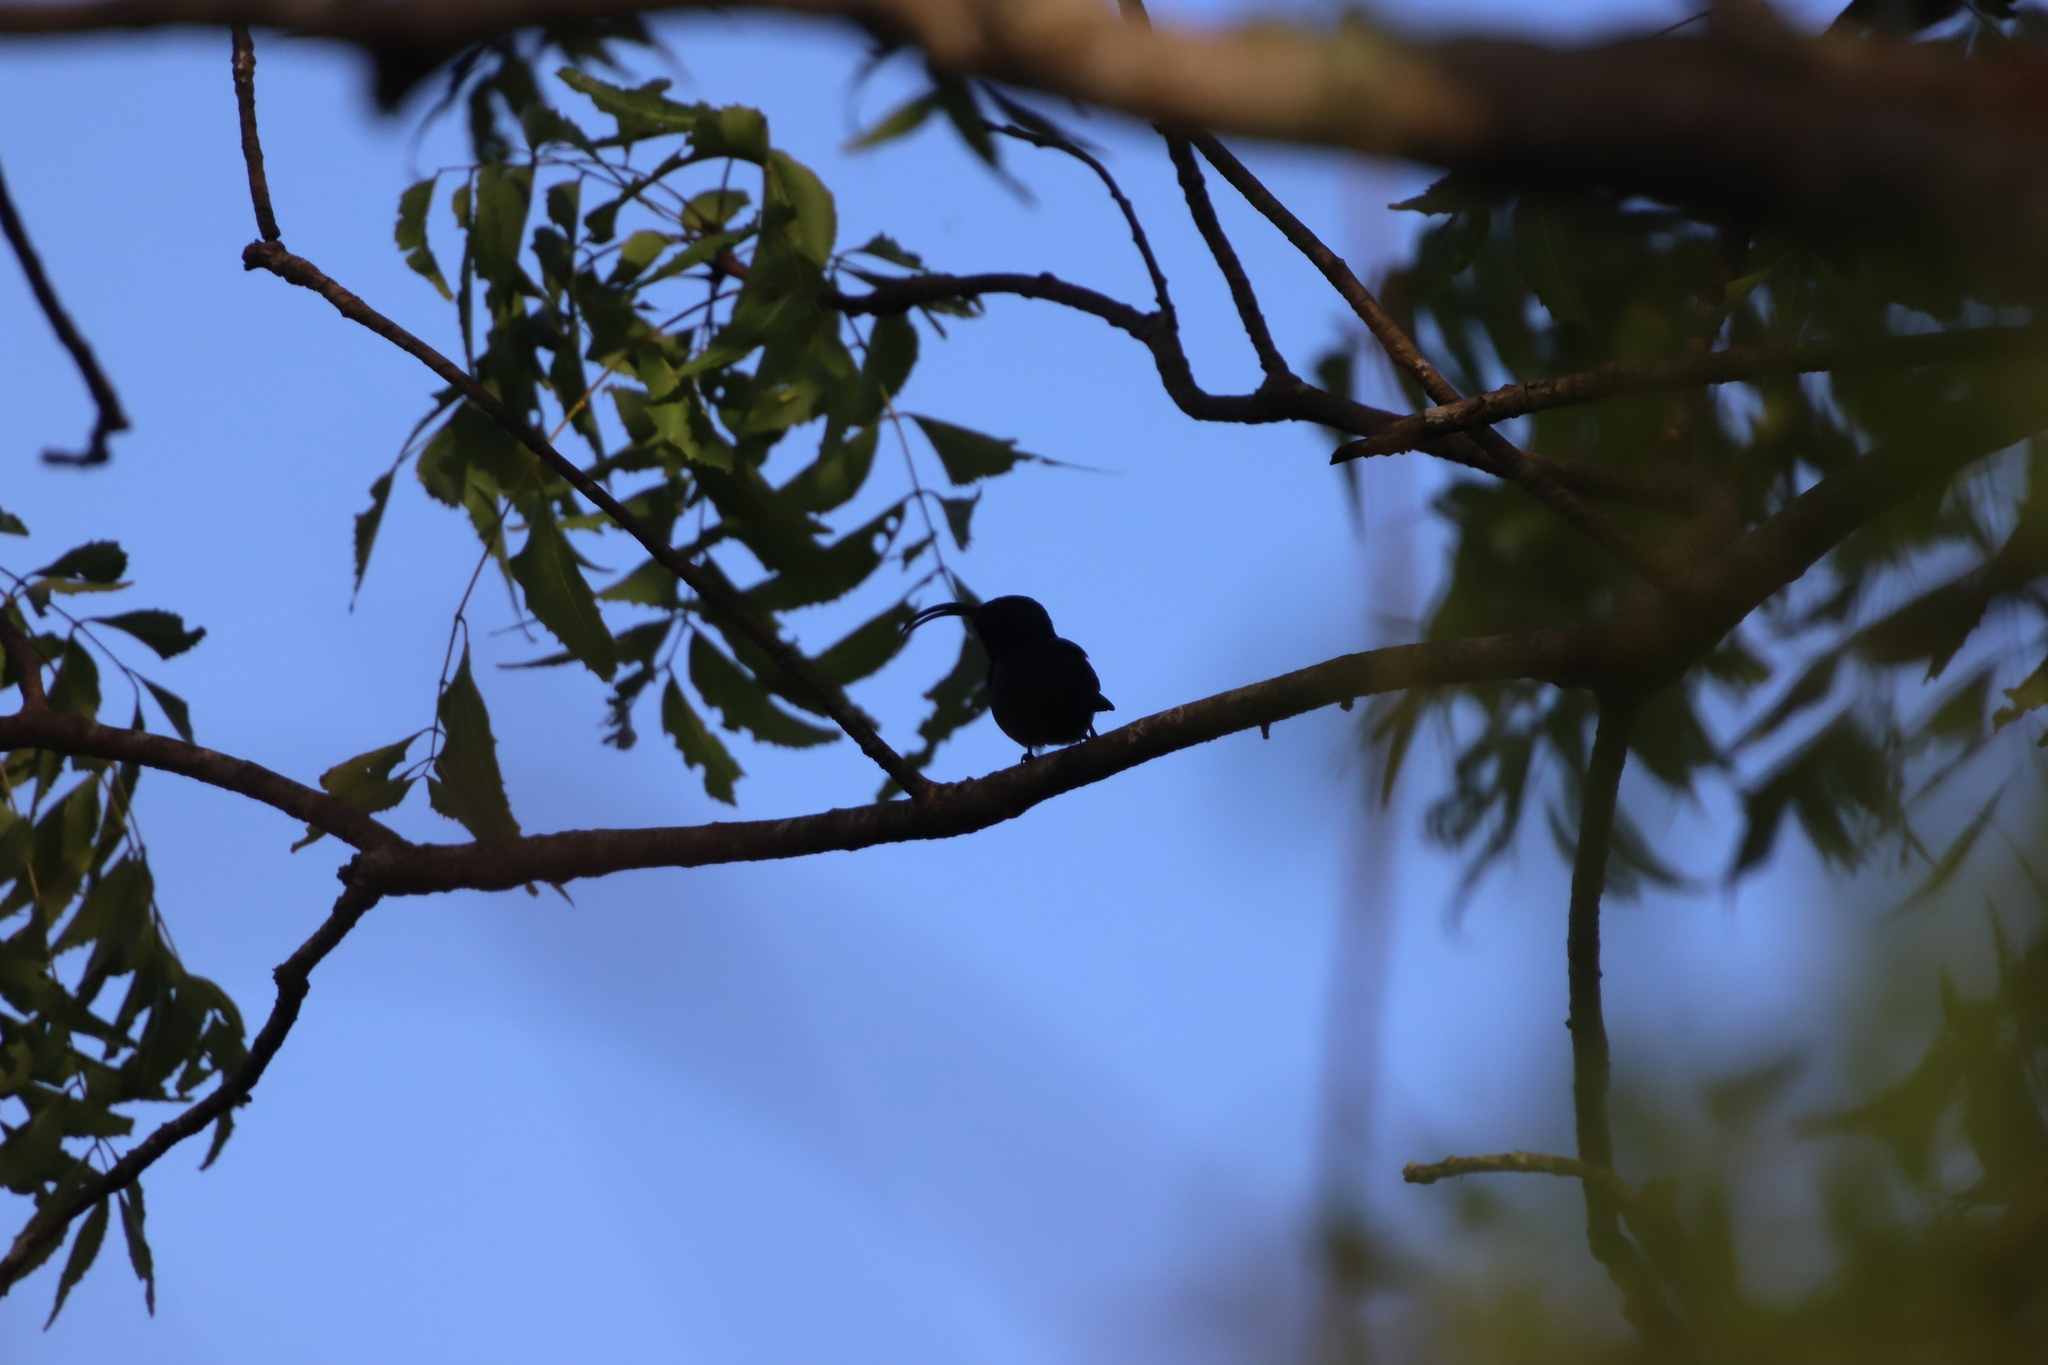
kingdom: Animalia
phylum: Chordata
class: Aves
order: Passeriformes
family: Nectariniidae
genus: Cinnyris
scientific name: Cinnyris lotenius
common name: Loten's sunbird
